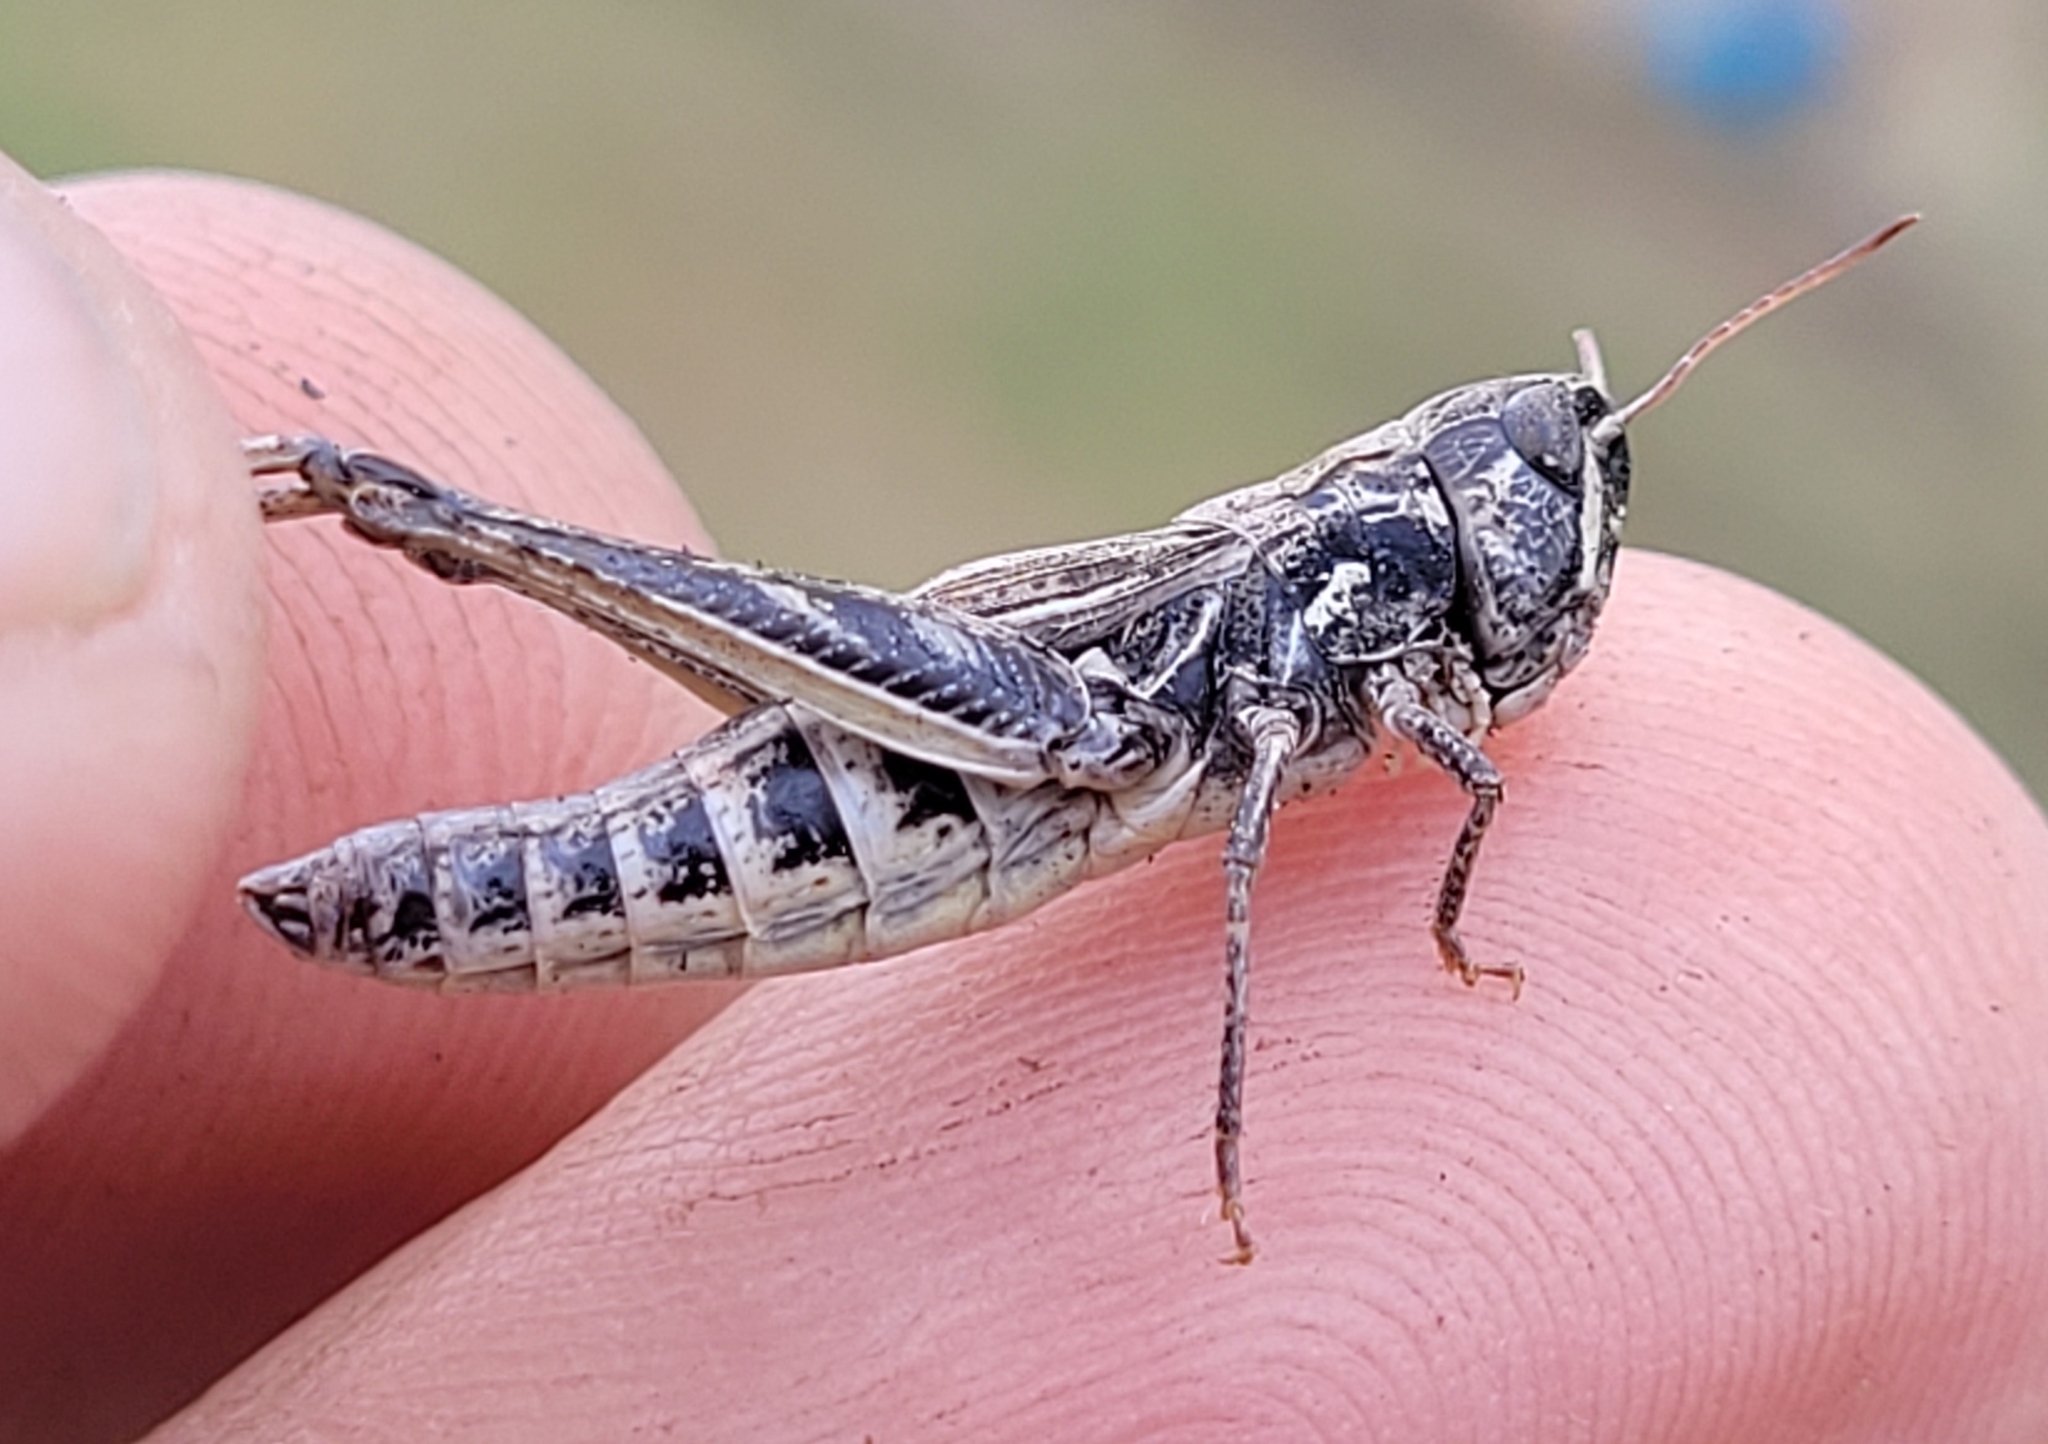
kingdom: Animalia
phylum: Arthropoda
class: Insecta
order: Orthoptera
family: Acrididae
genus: Aeropedellus
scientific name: Aeropedellus clavatus
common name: Clubhorned grasshopper
